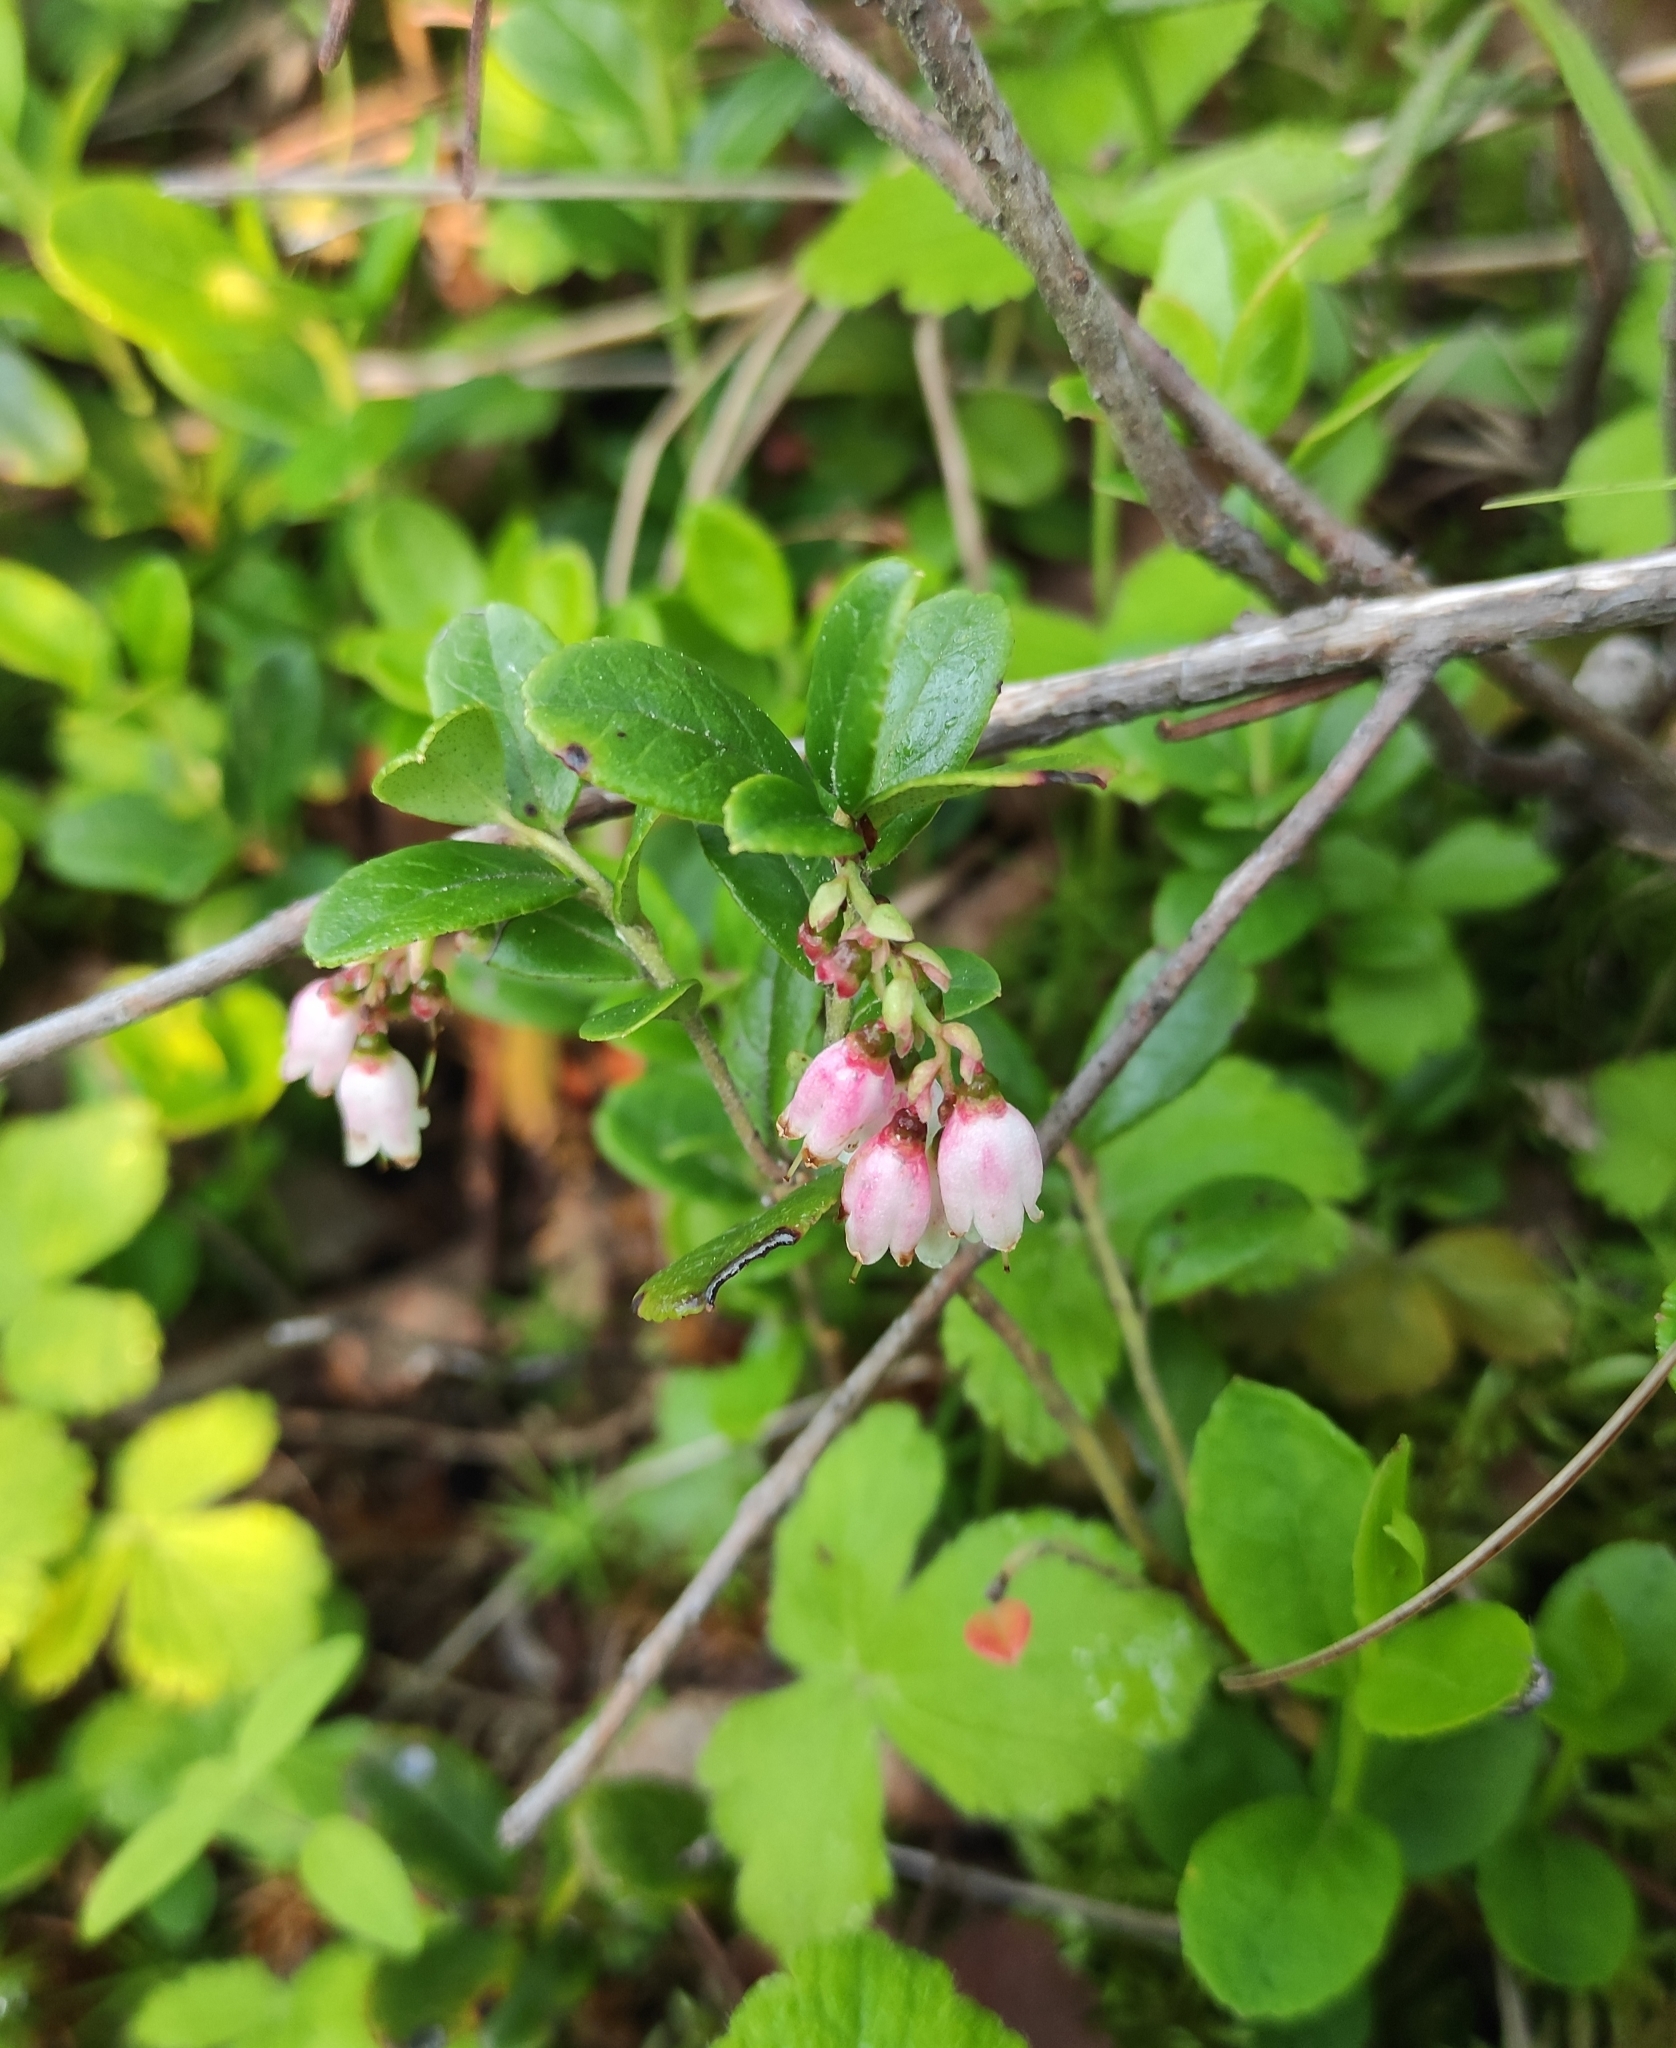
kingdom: Plantae
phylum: Tracheophyta
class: Magnoliopsida
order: Ericales
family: Ericaceae
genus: Vaccinium
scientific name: Vaccinium vitis-idaea
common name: Cowberry
